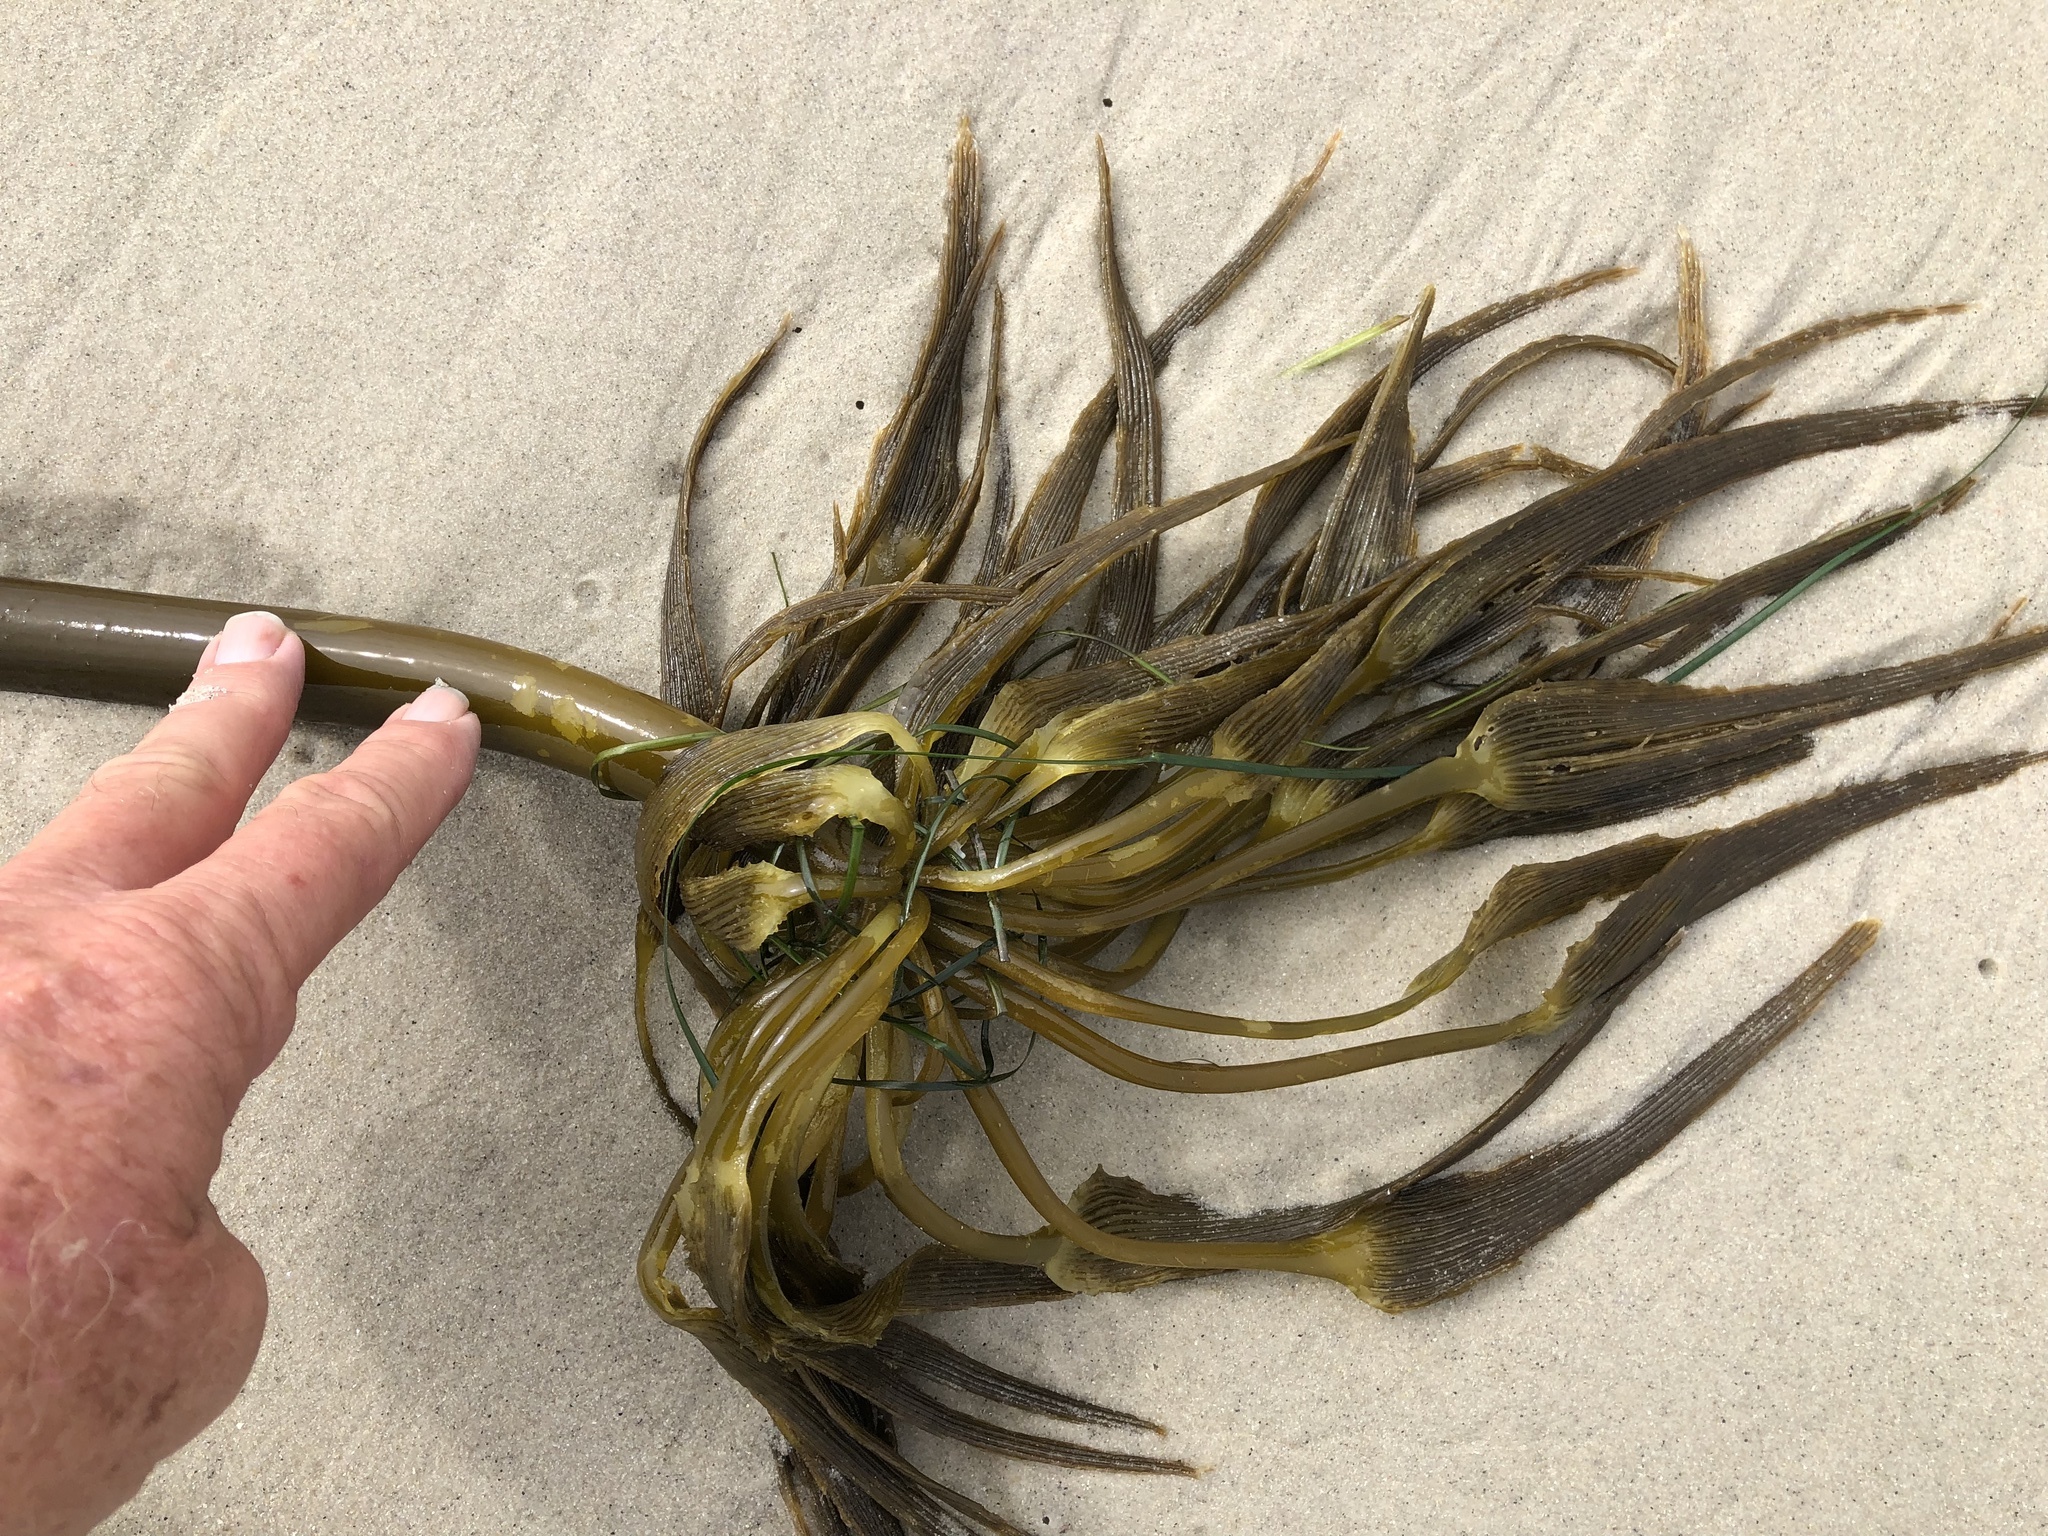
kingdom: Chromista
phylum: Ochrophyta
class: Phaeophyceae
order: Laminariales
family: Laminariaceae
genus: Postelsia
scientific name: Postelsia palmiformis
